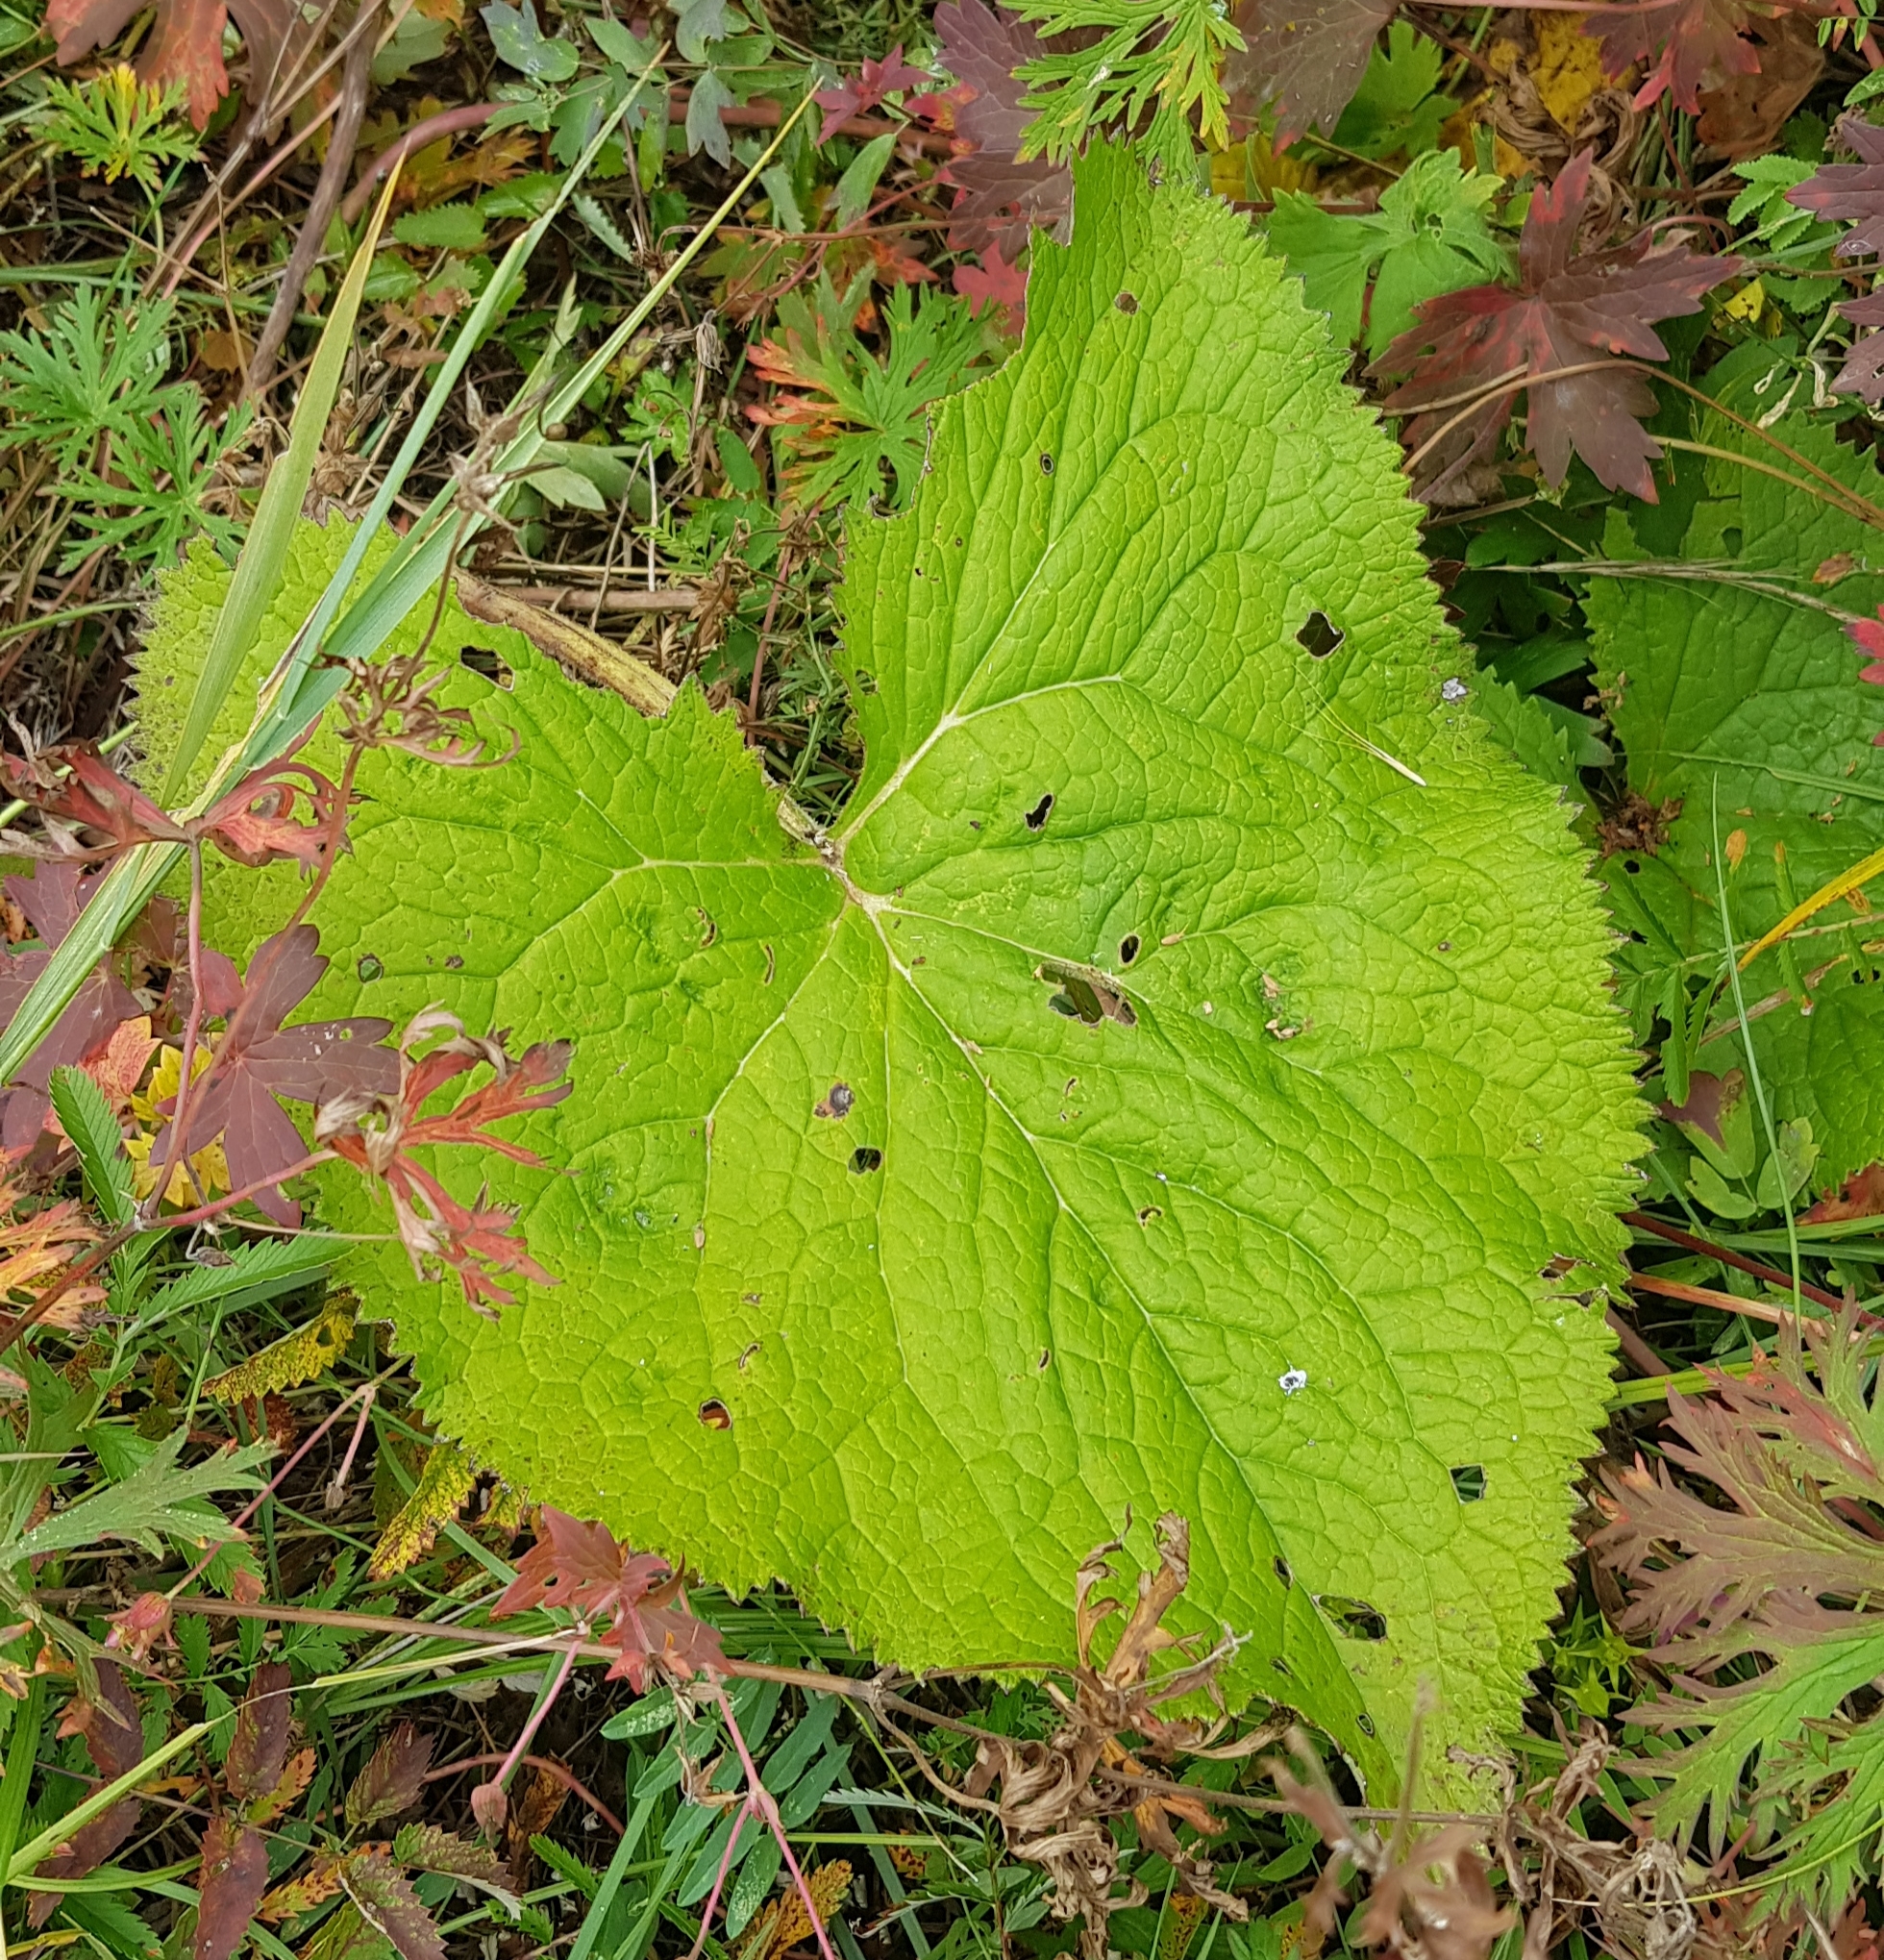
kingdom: Plantae
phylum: Tracheophyta
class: Magnoliopsida
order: Lamiales
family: Lamiaceae
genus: Phlomoides
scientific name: Phlomoides tuberosa
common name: Tuberous jerusalem sage
